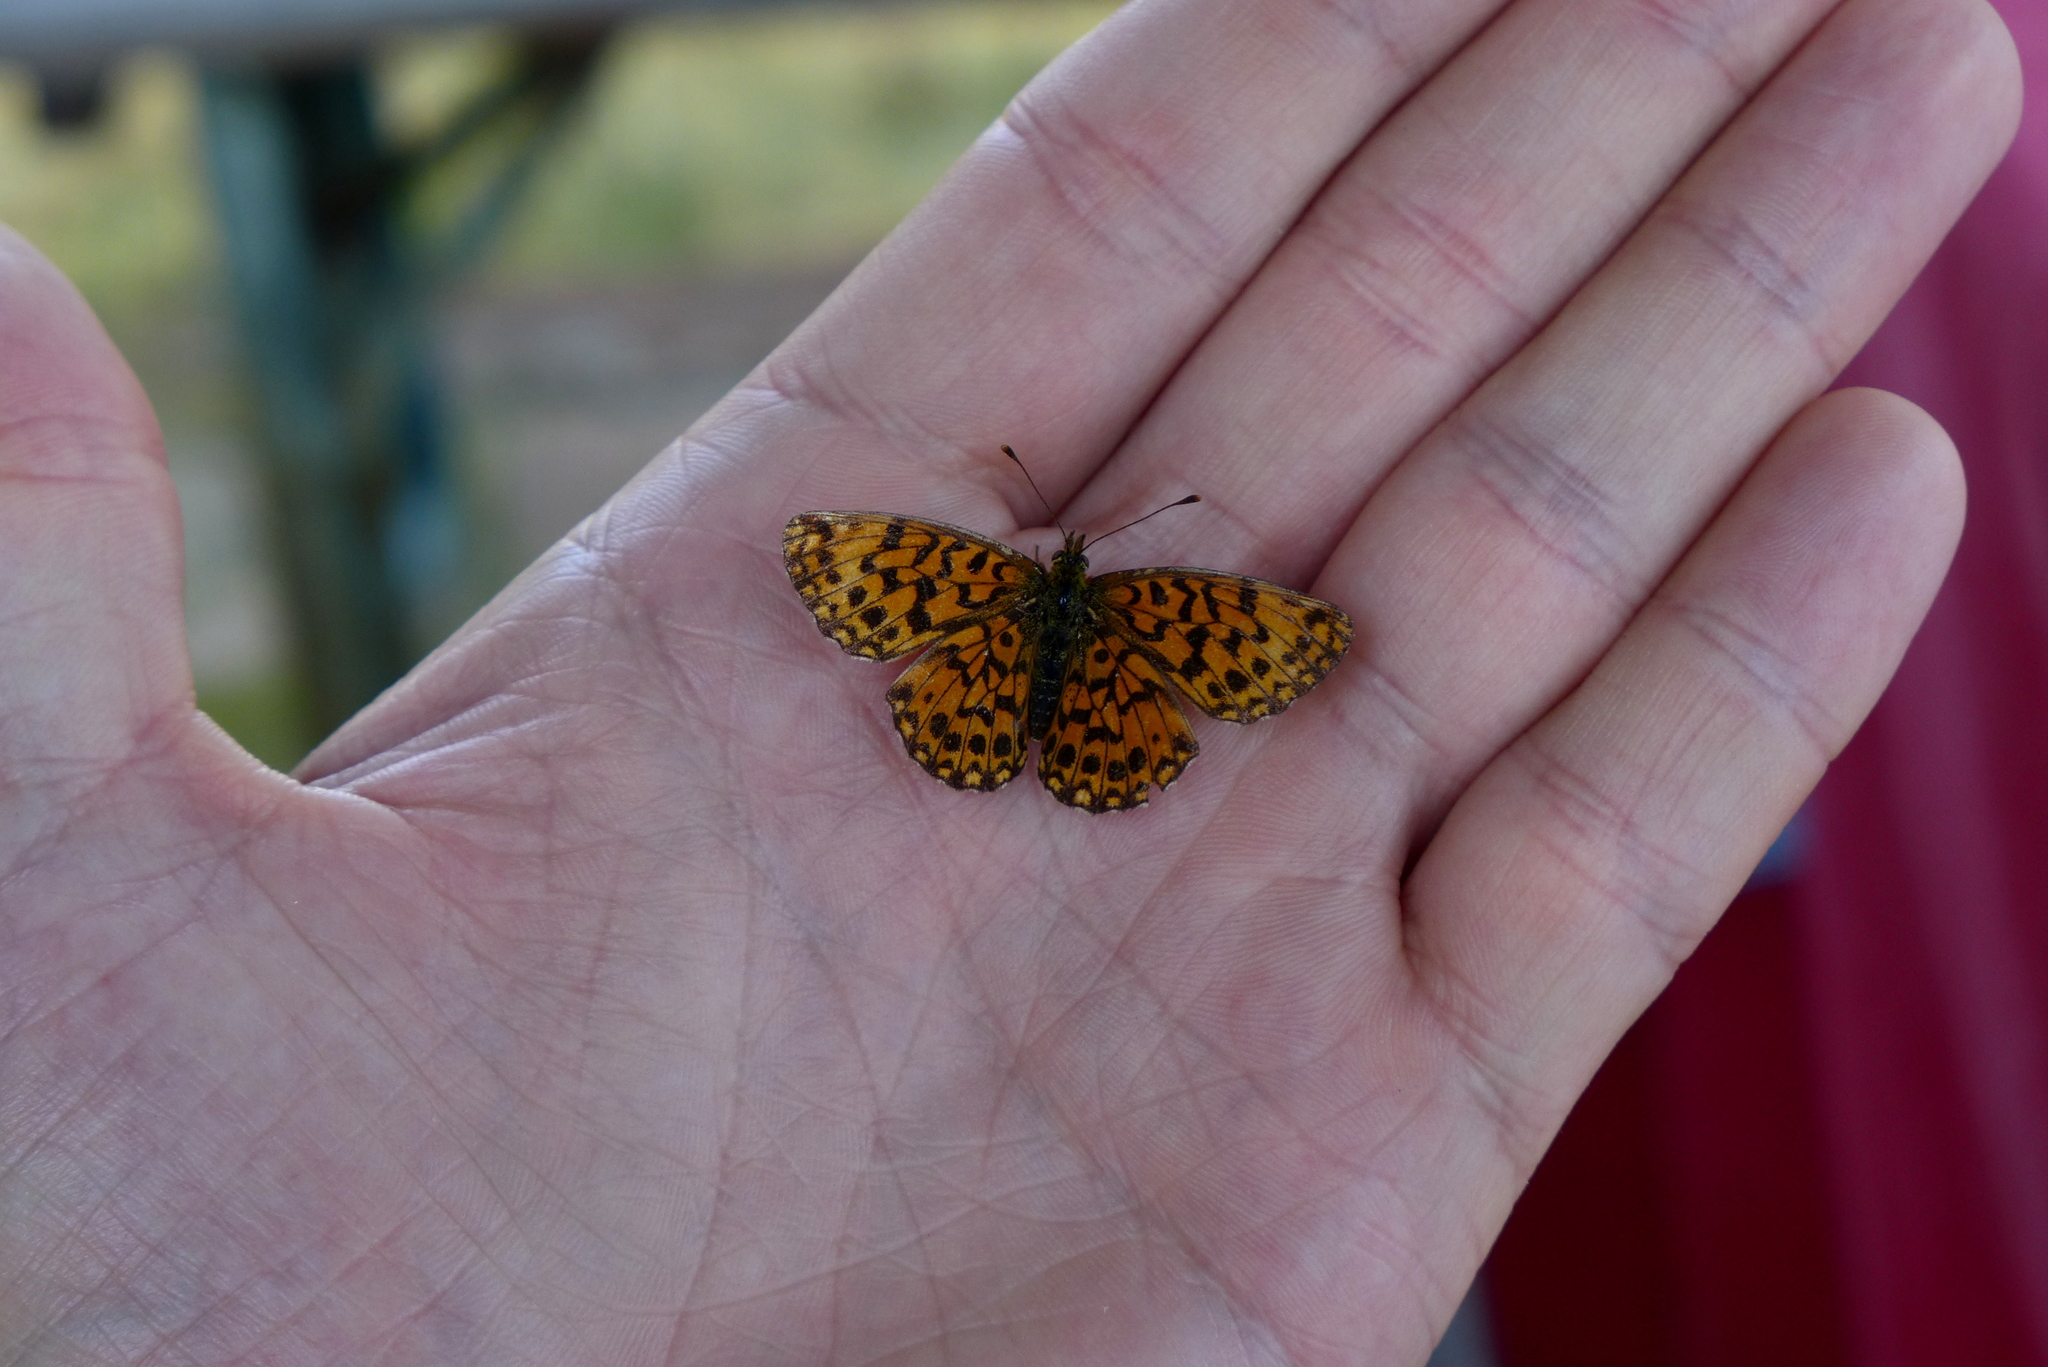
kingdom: Animalia
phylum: Arthropoda
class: Insecta
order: Lepidoptera
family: Nymphalidae
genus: Boloria
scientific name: Boloria dia
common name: Weaver's fritillary
